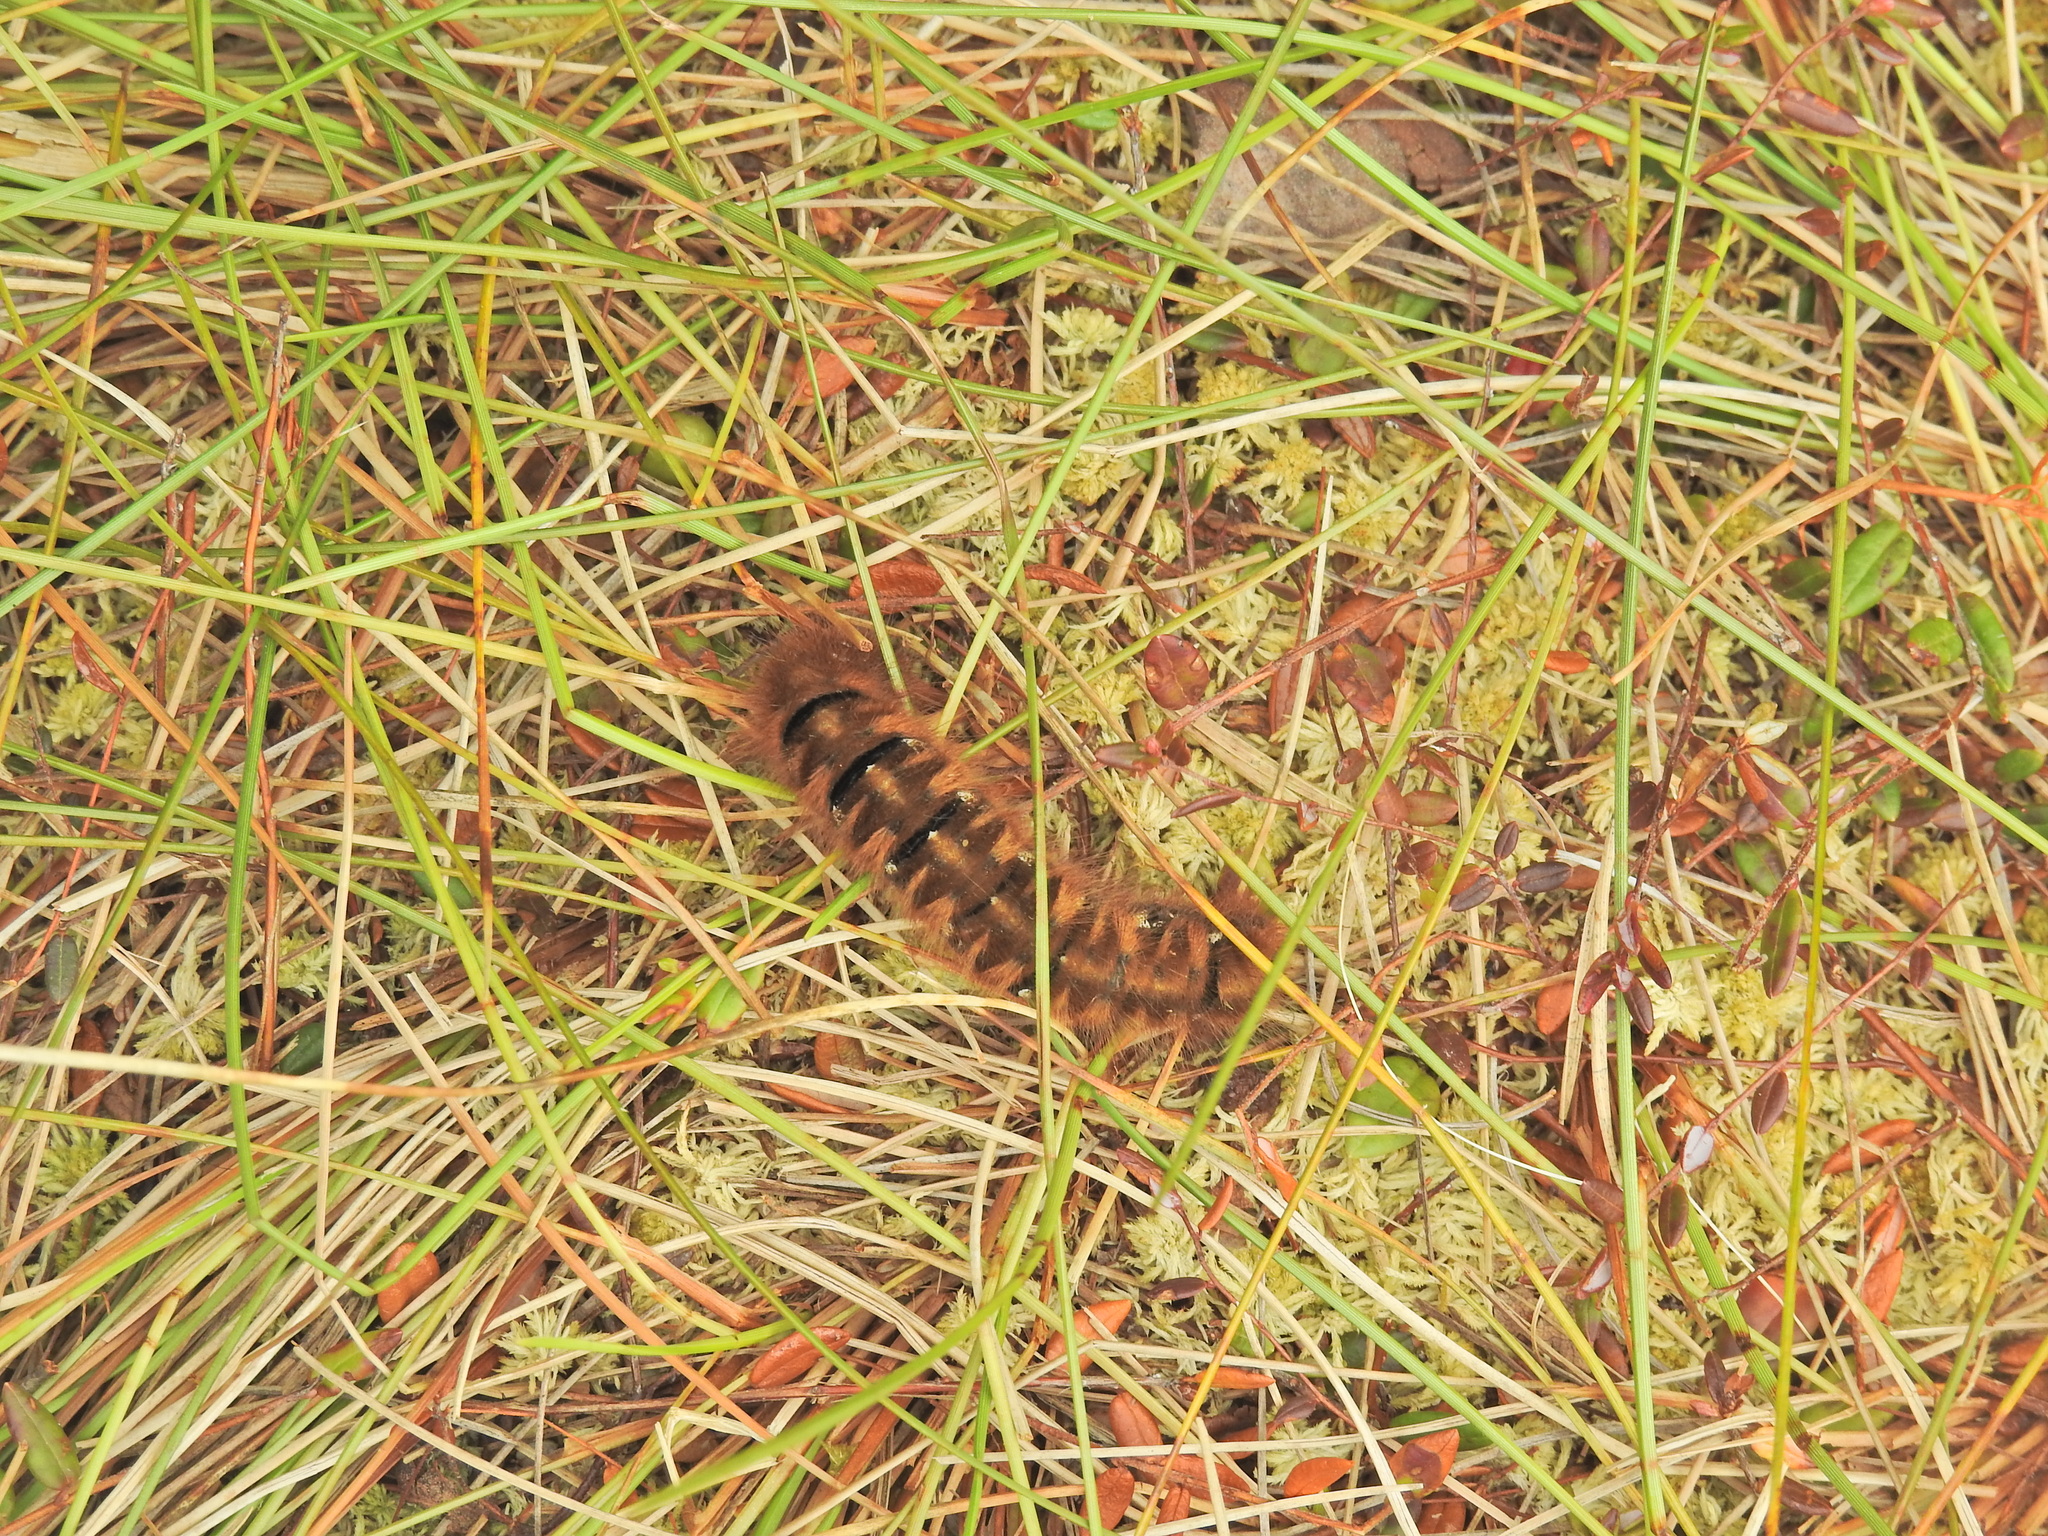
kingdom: Animalia
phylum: Arthropoda
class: Insecta
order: Lepidoptera
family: Lasiocampidae
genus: Lasiocampa
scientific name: Lasiocampa quercus
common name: Oak eggar
